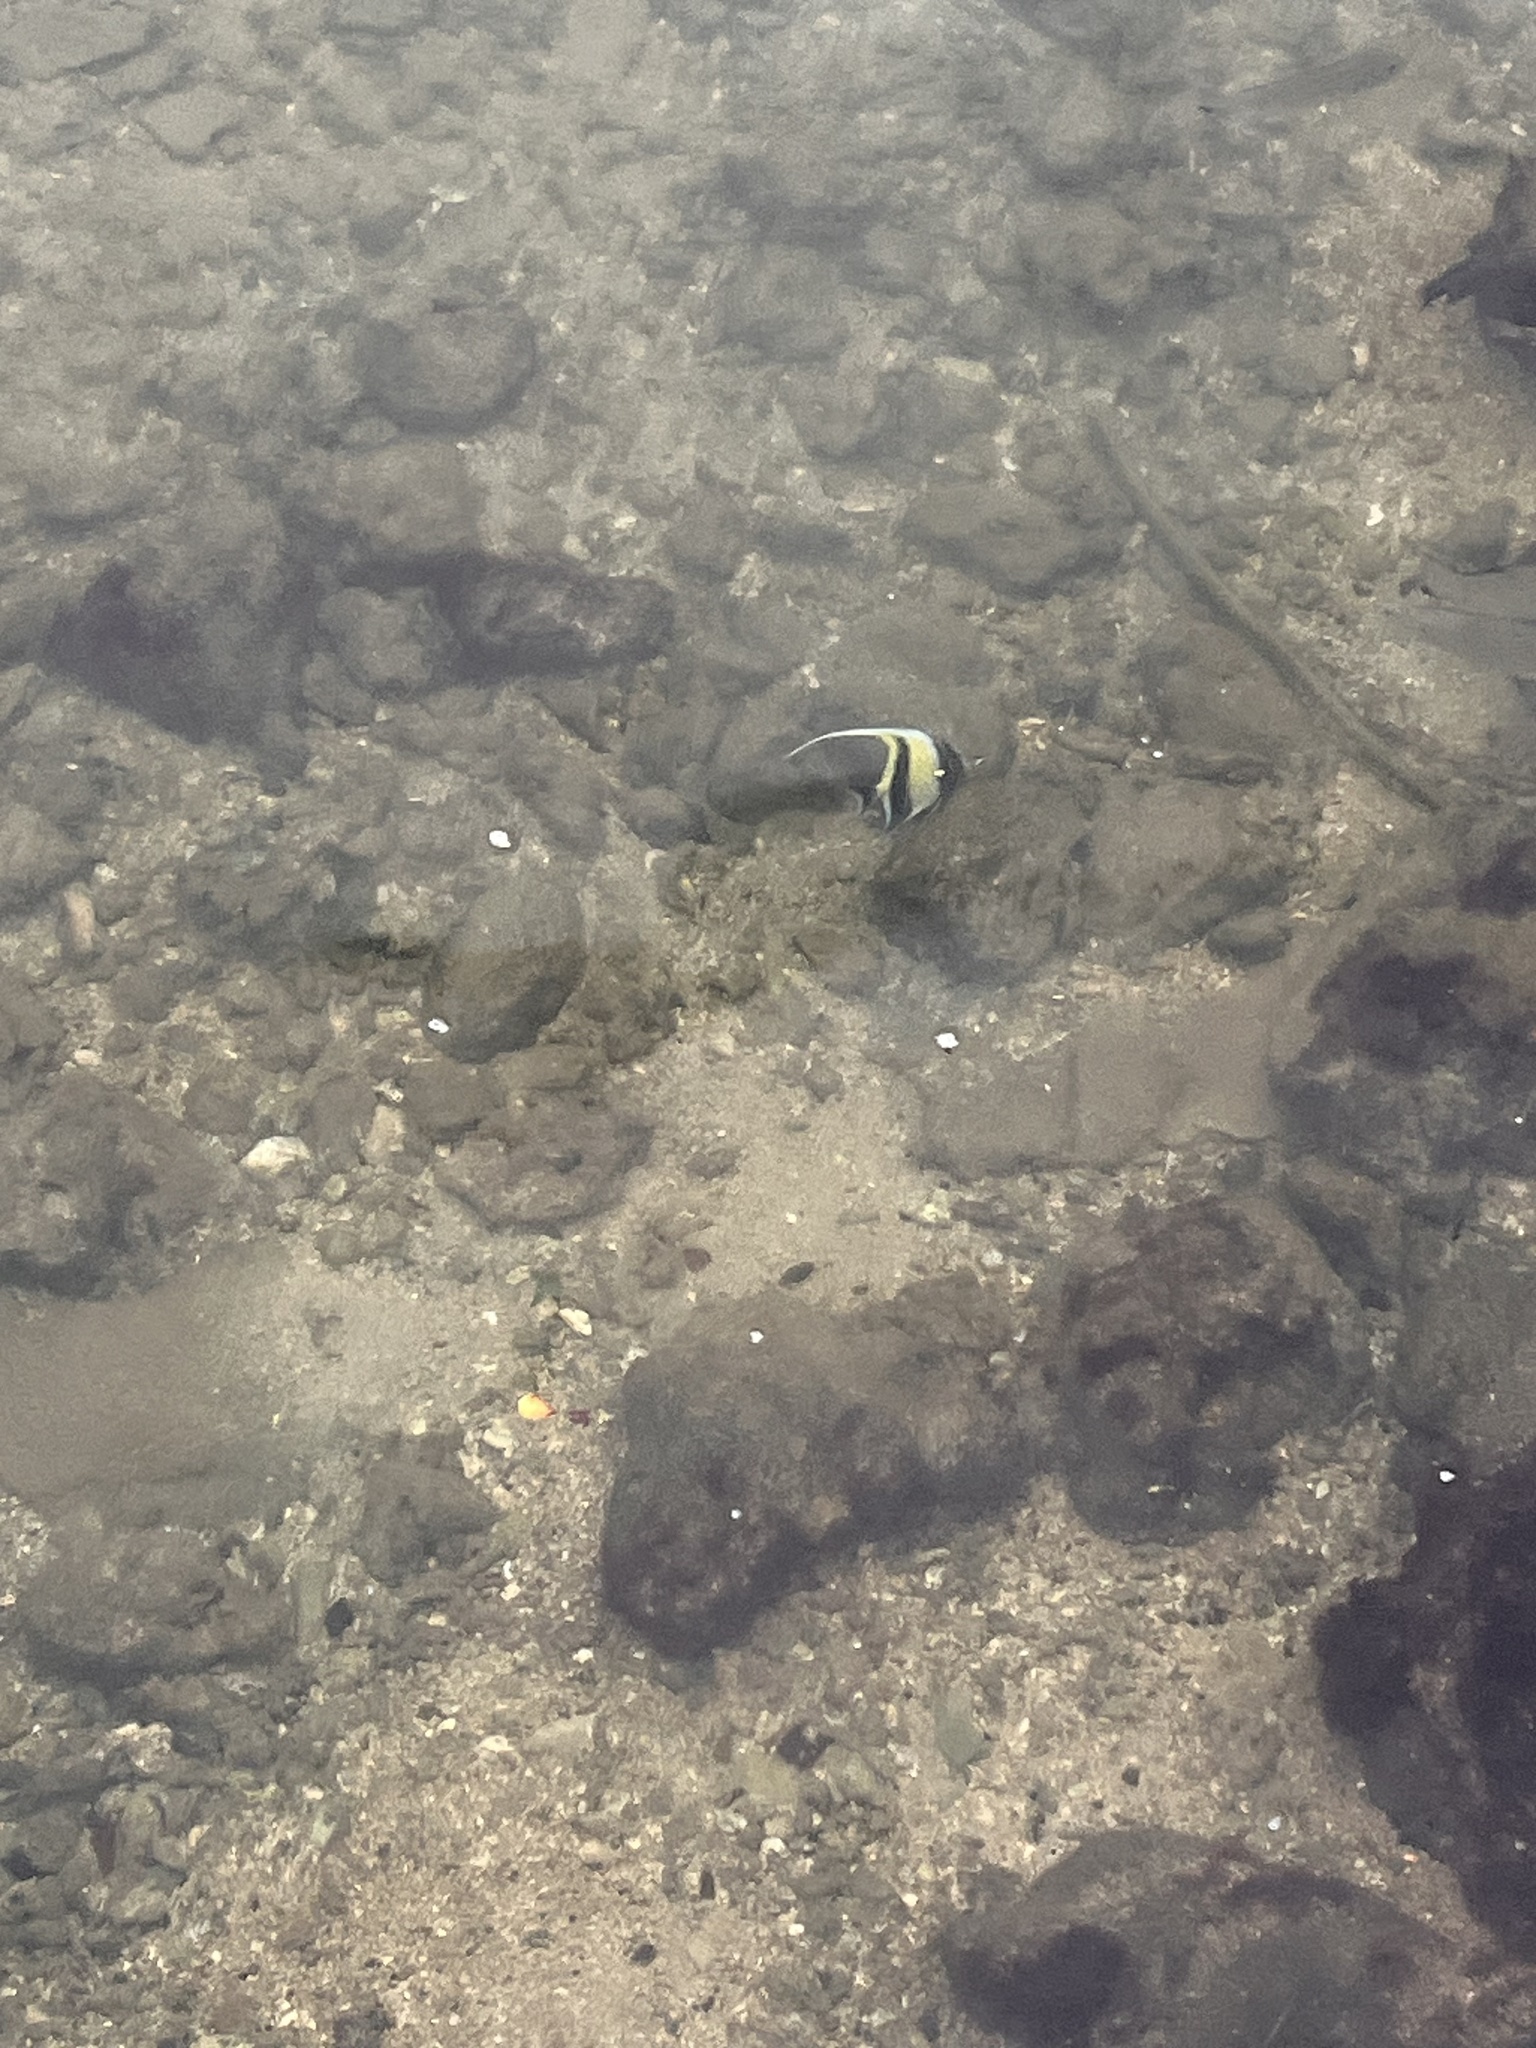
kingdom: Animalia
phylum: Chordata
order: Perciformes
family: Zanclidae
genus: Zanclus
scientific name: Zanclus cornutus
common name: Moorish idol
